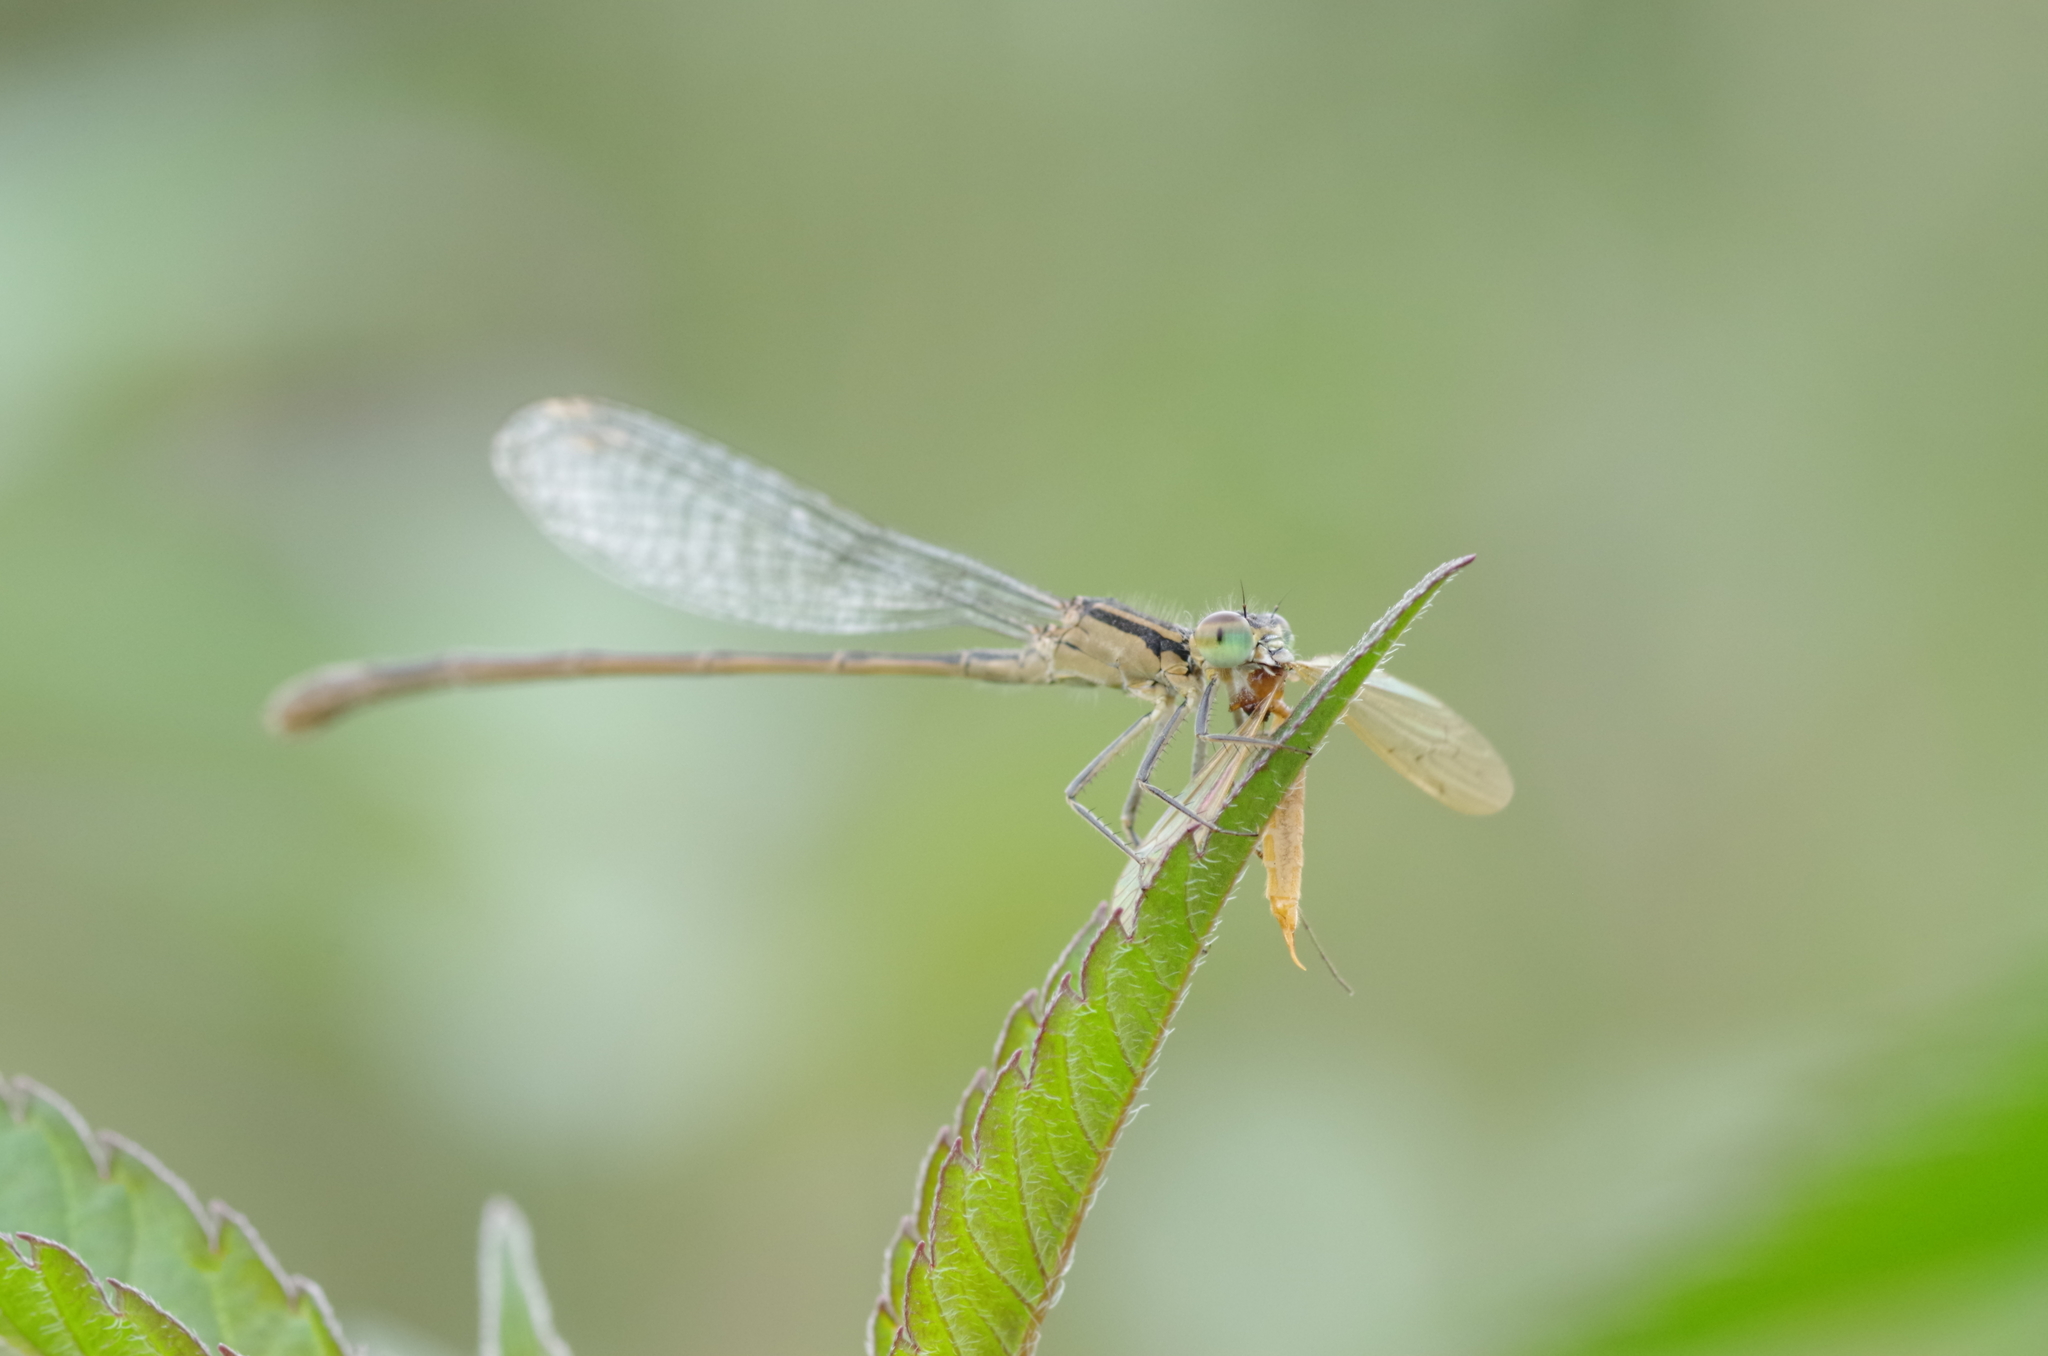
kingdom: Animalia
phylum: Arthropoda
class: Insecta
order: Odonata
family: Coenagrionidae
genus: Enallagma
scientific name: Enallagma cyathigerum
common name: Common blue damselfly
